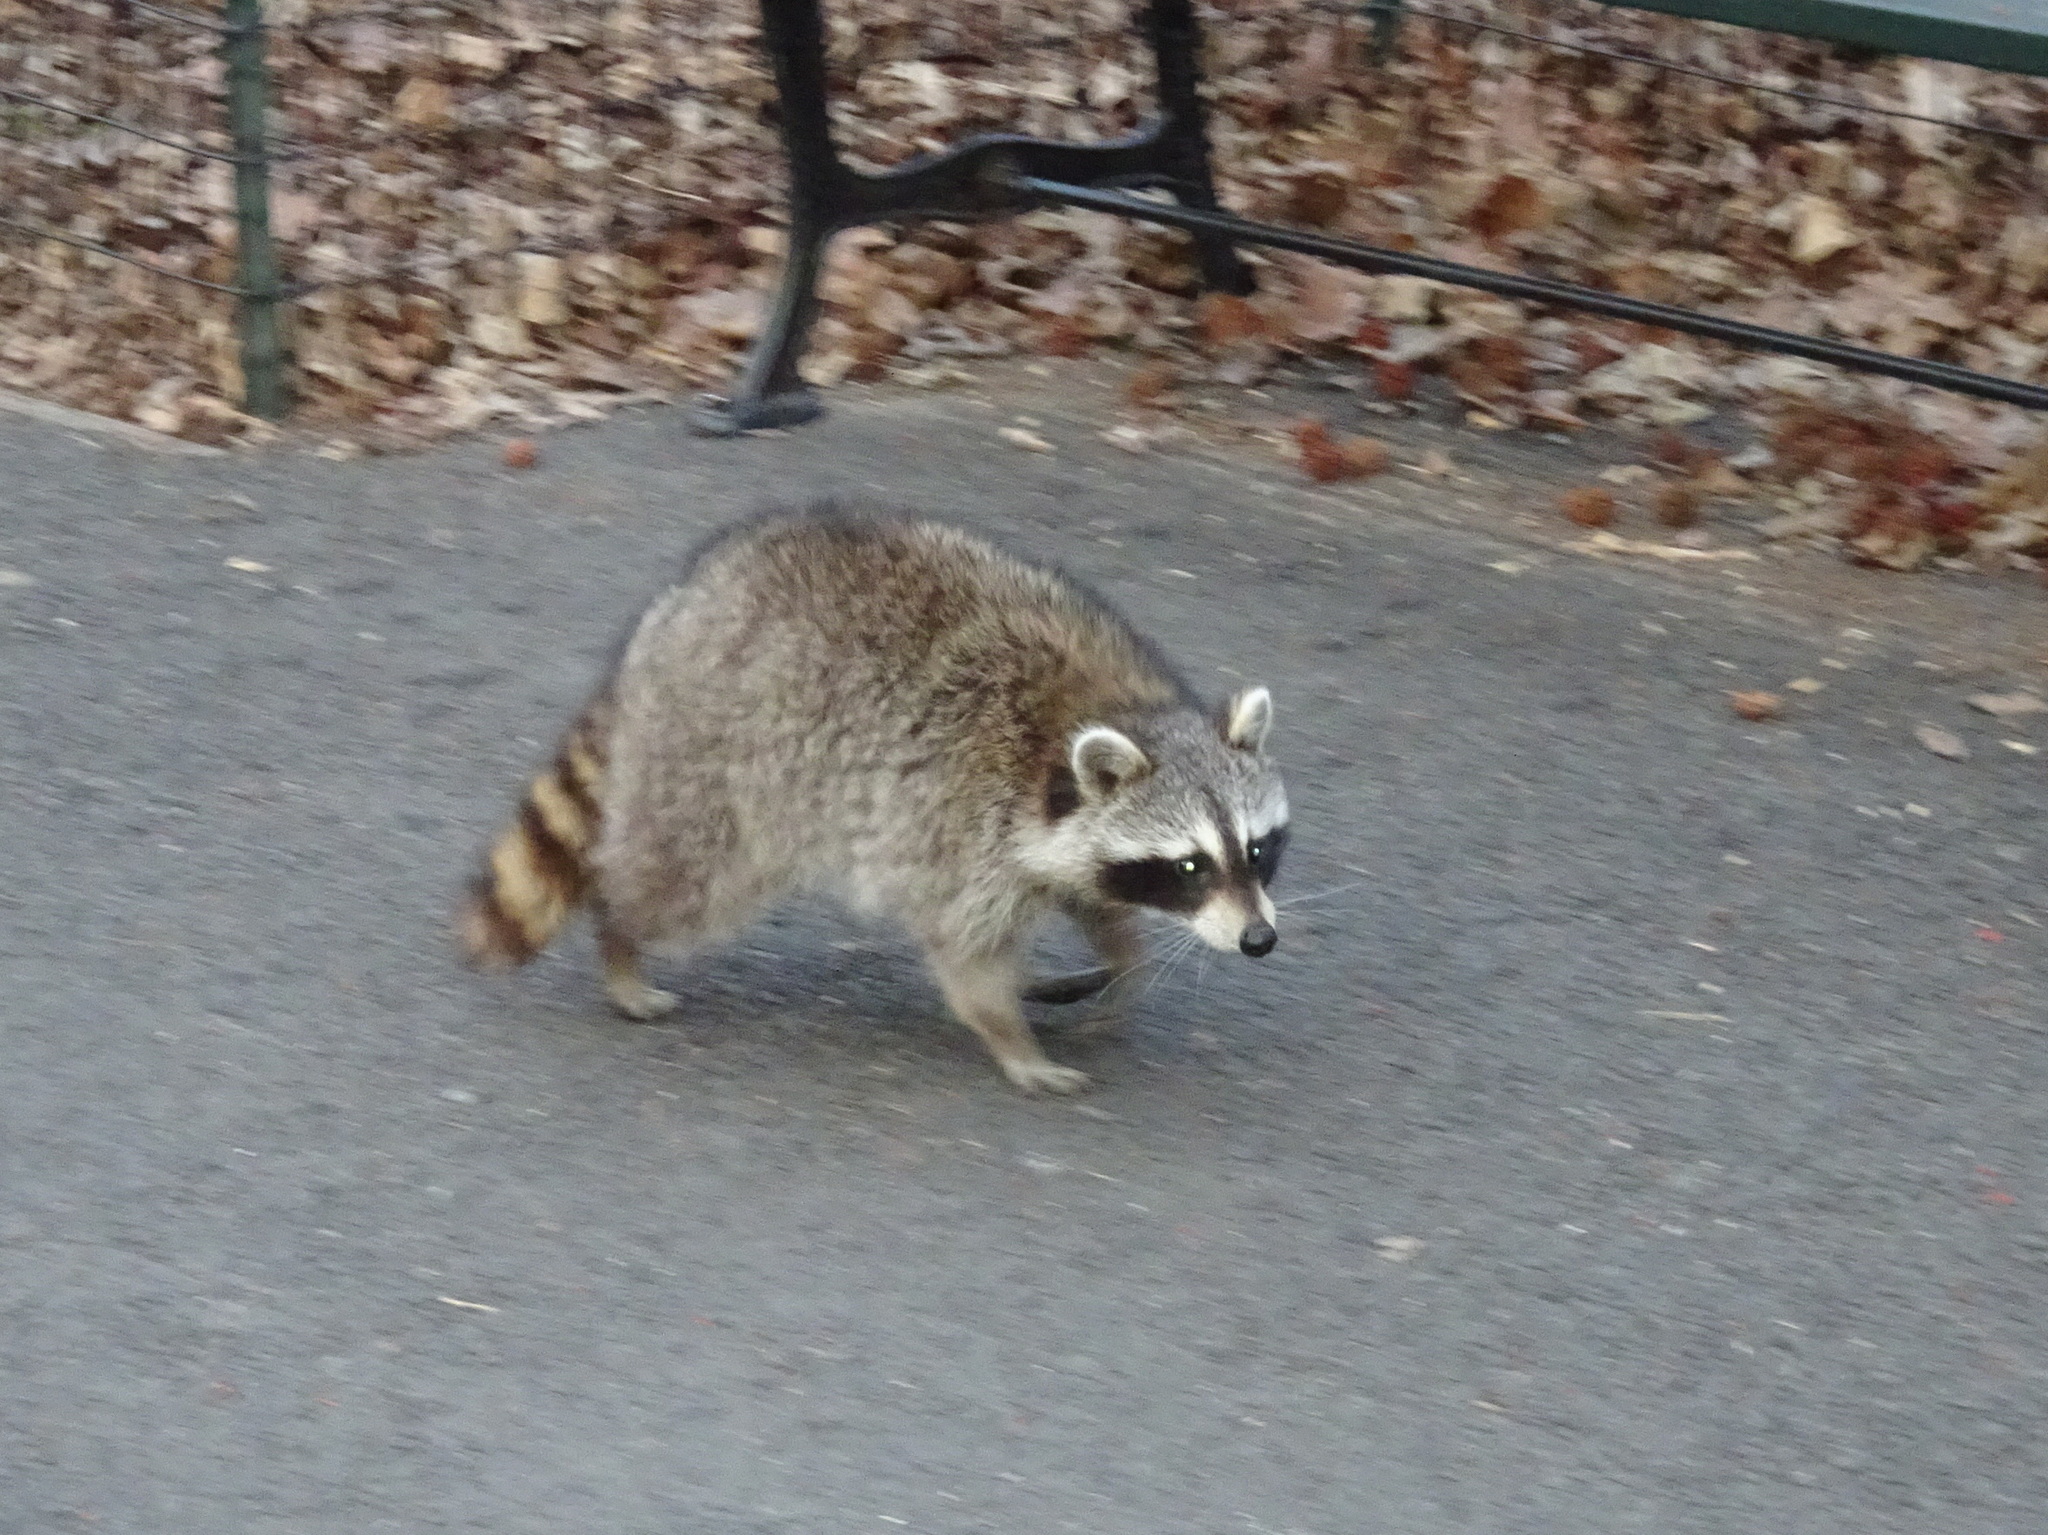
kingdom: Animalia
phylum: Chordata
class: Mammalia
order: Carnivora
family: Procyonidae
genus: Procyon
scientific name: Procyon lotor
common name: Raccoon
